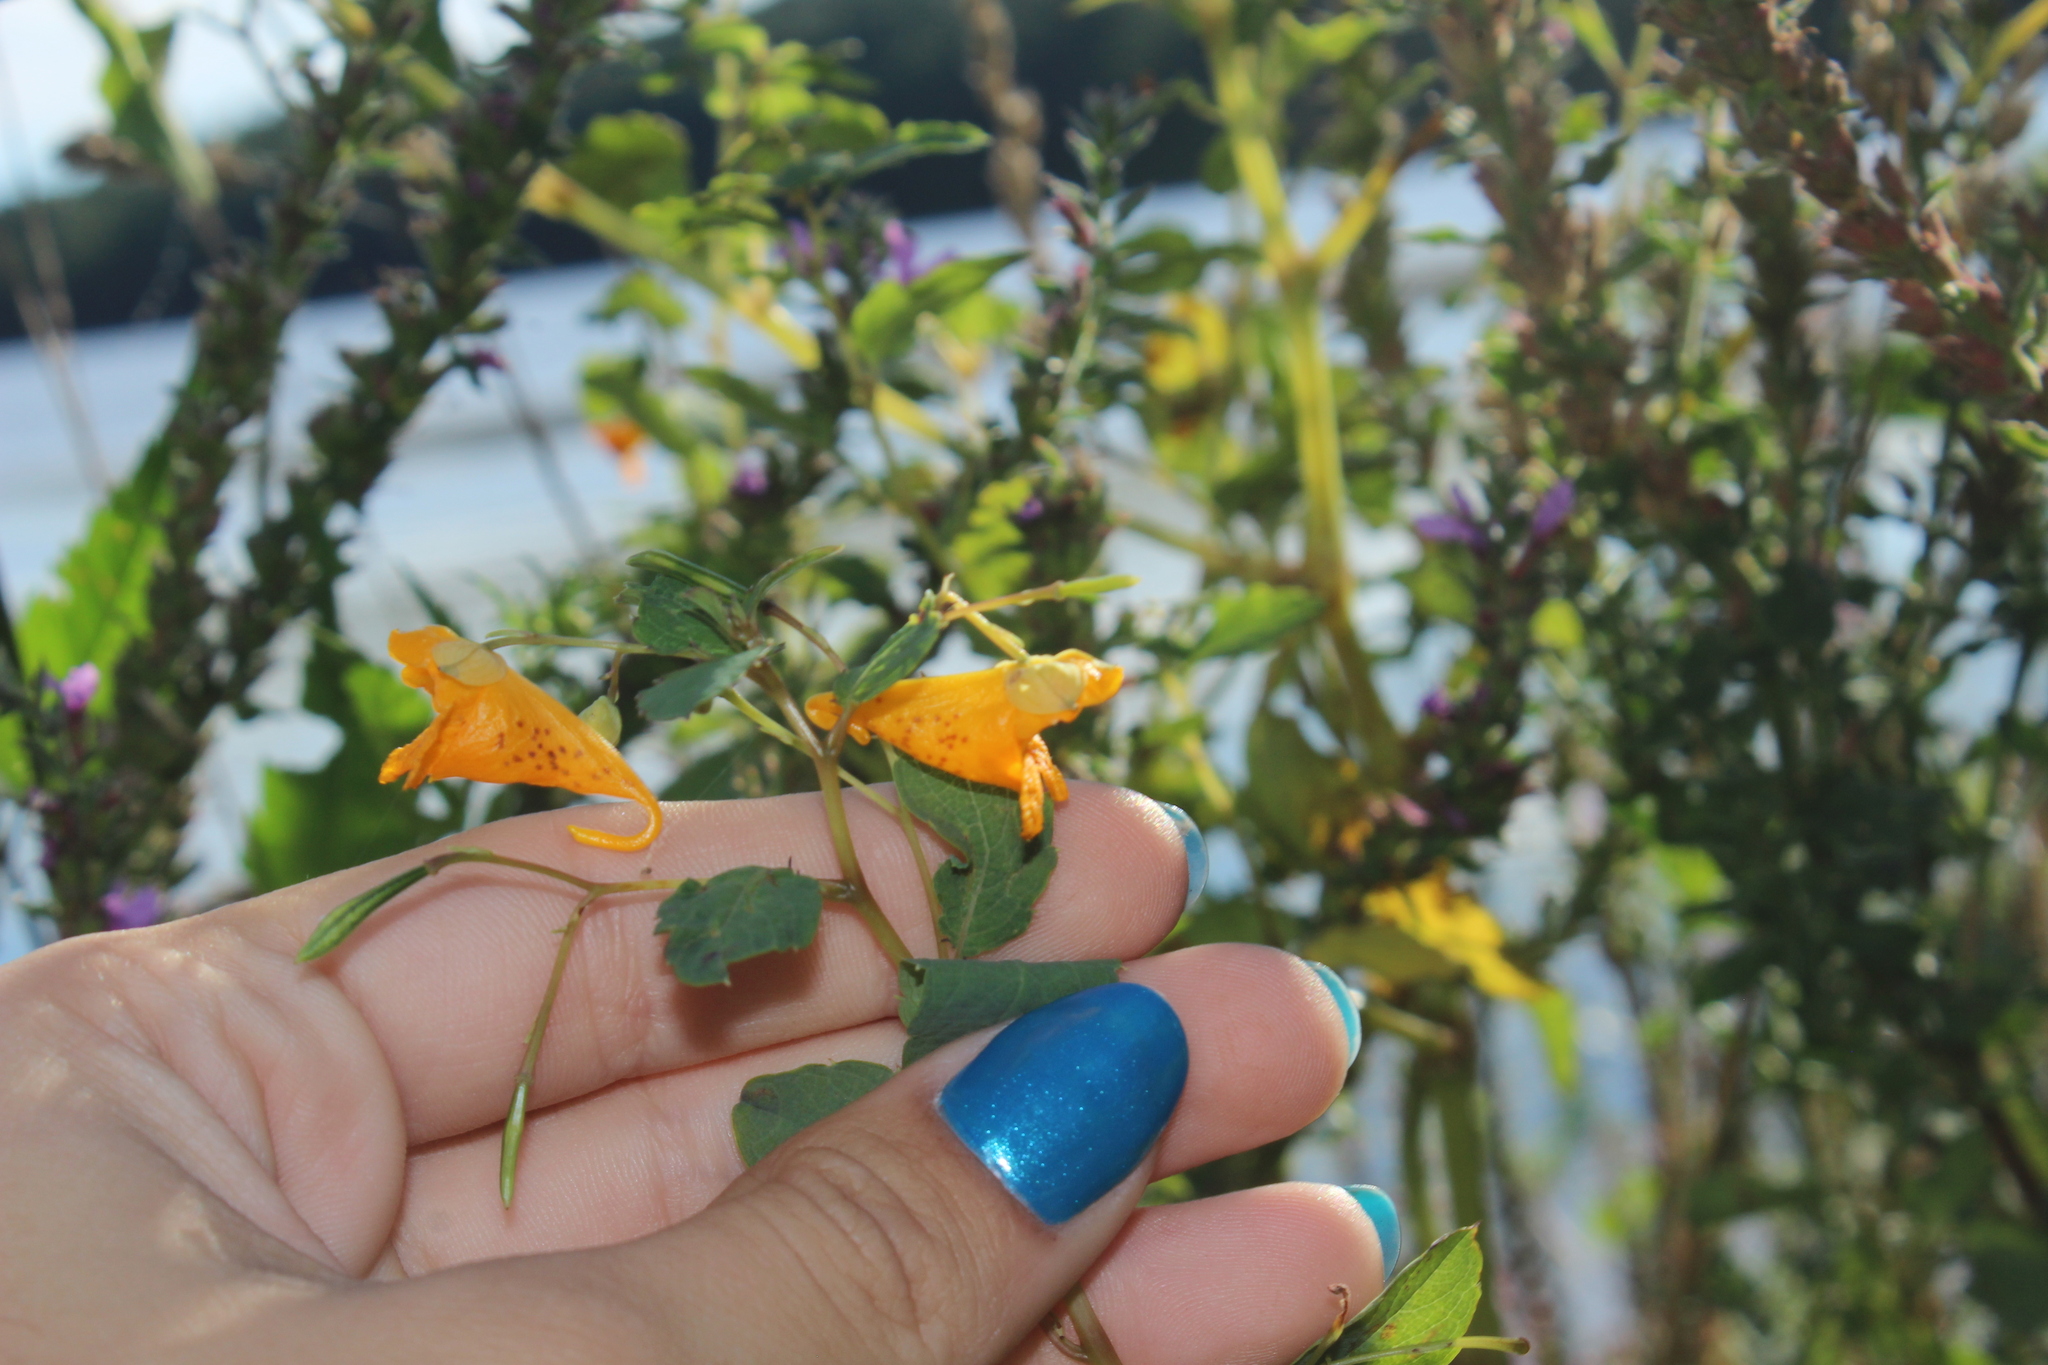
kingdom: Plantae
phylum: Tracheophyta
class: Magnoliopsida
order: Ericales
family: Balsaminaceae
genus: Impatiens
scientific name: Impatiens capensis
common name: Orange balsam
